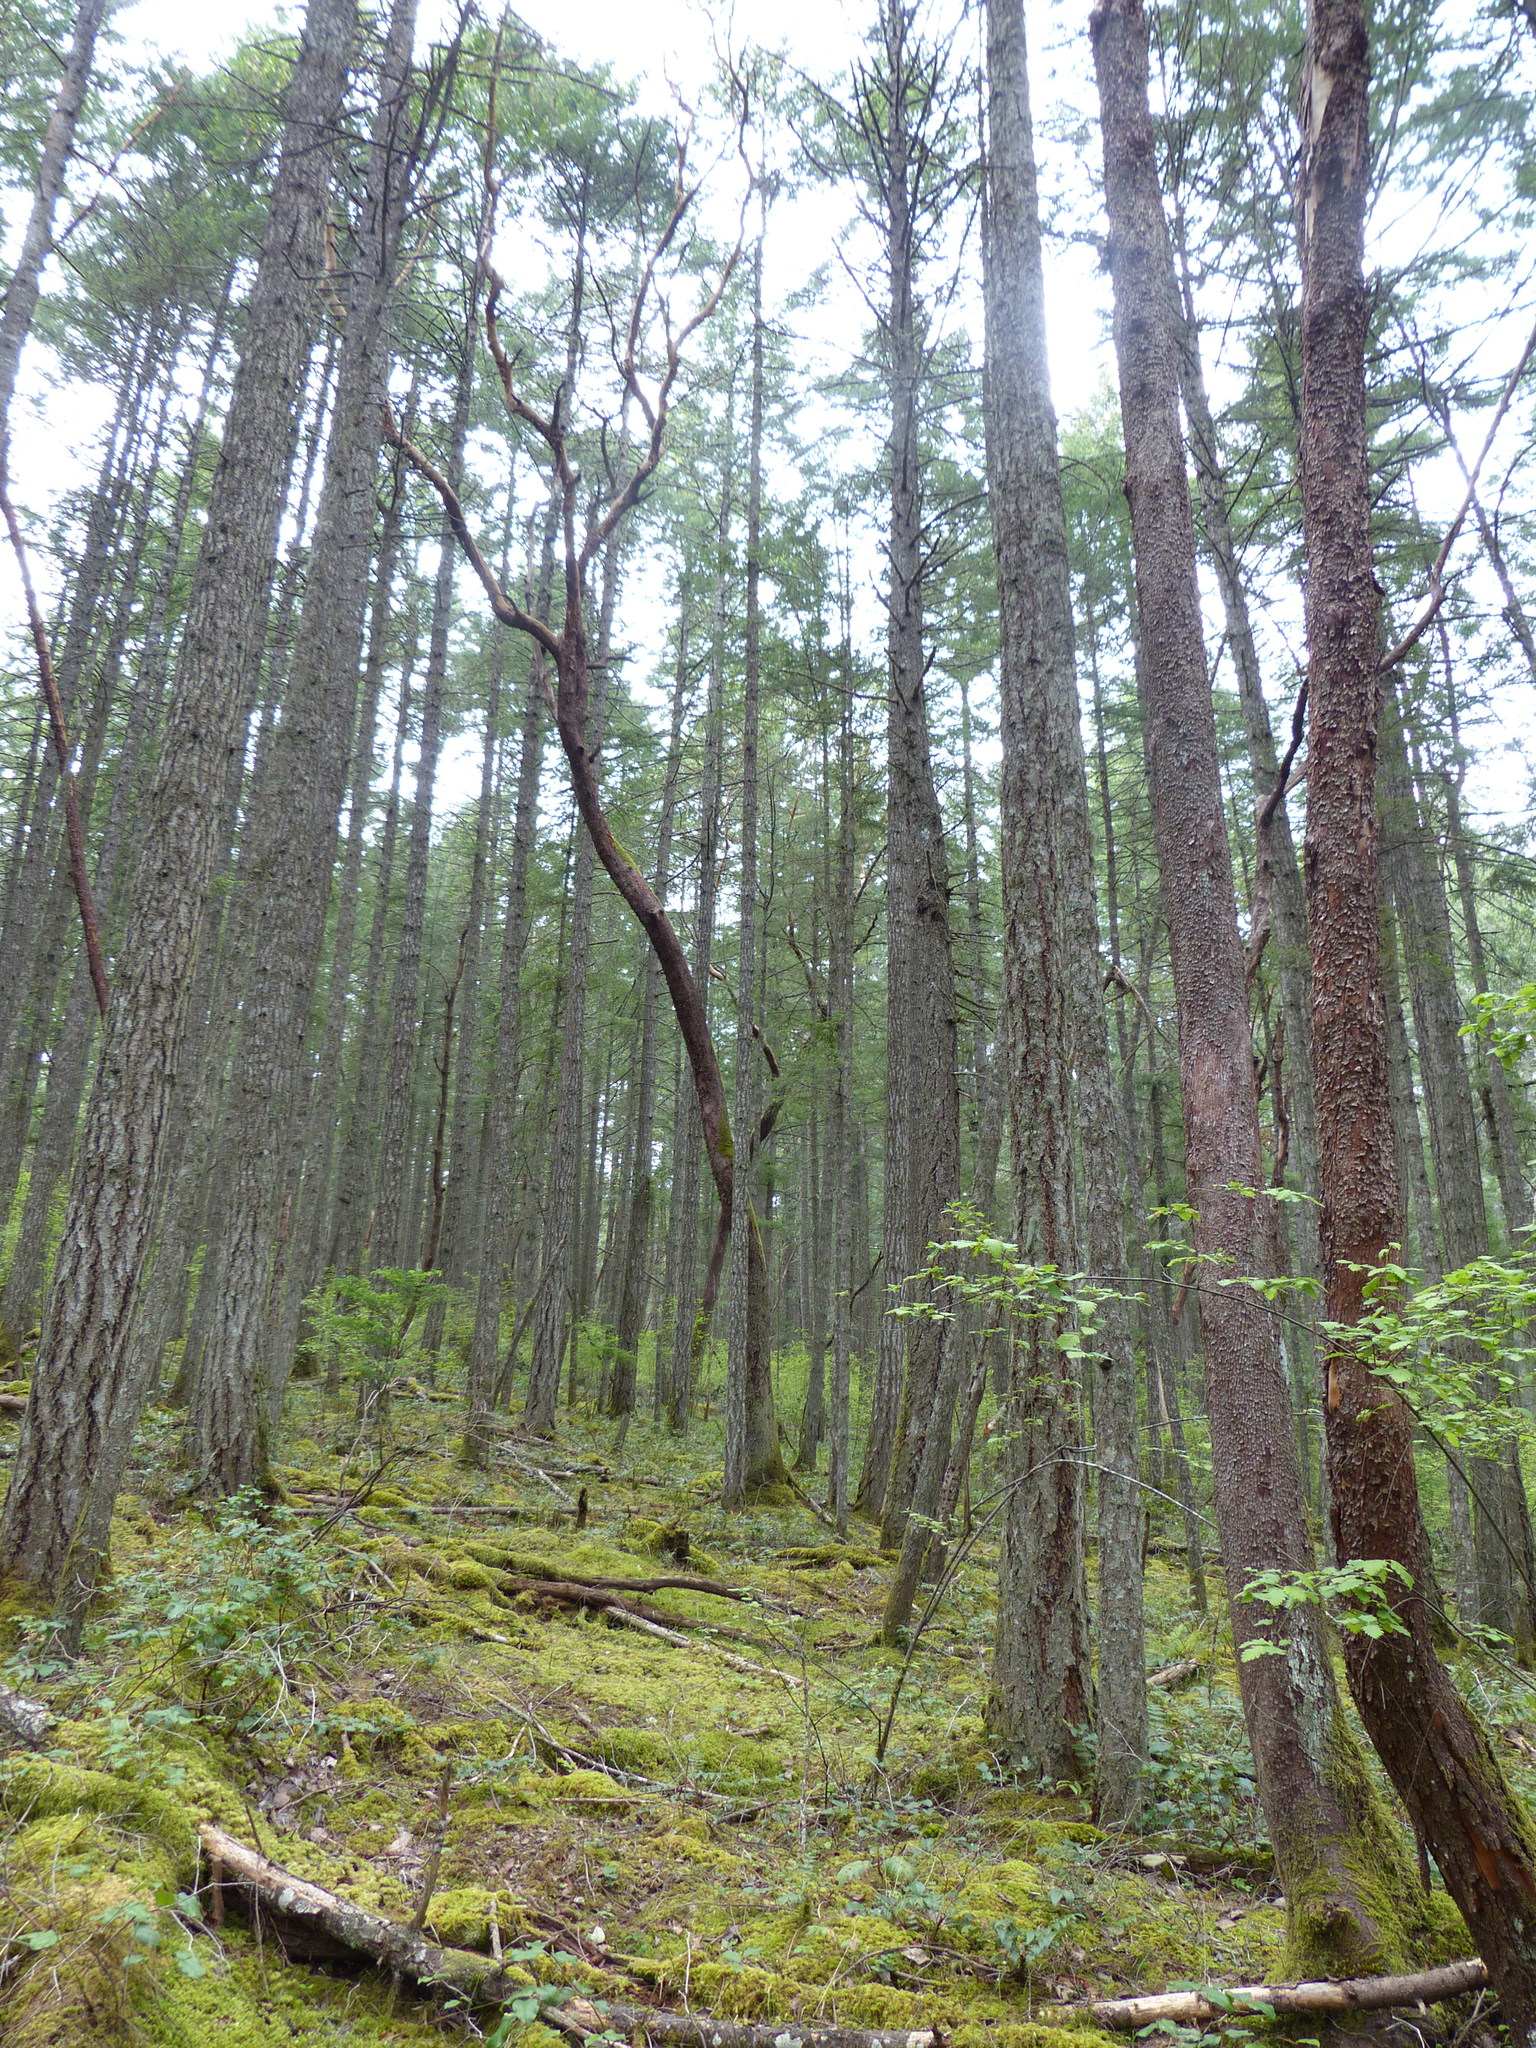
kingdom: Plantae
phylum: Tracheophyta
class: Magnoliopsida
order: Ericales
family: Ericaceae
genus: Arbutus
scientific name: Arbutus menziesii
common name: Pacific madrone
